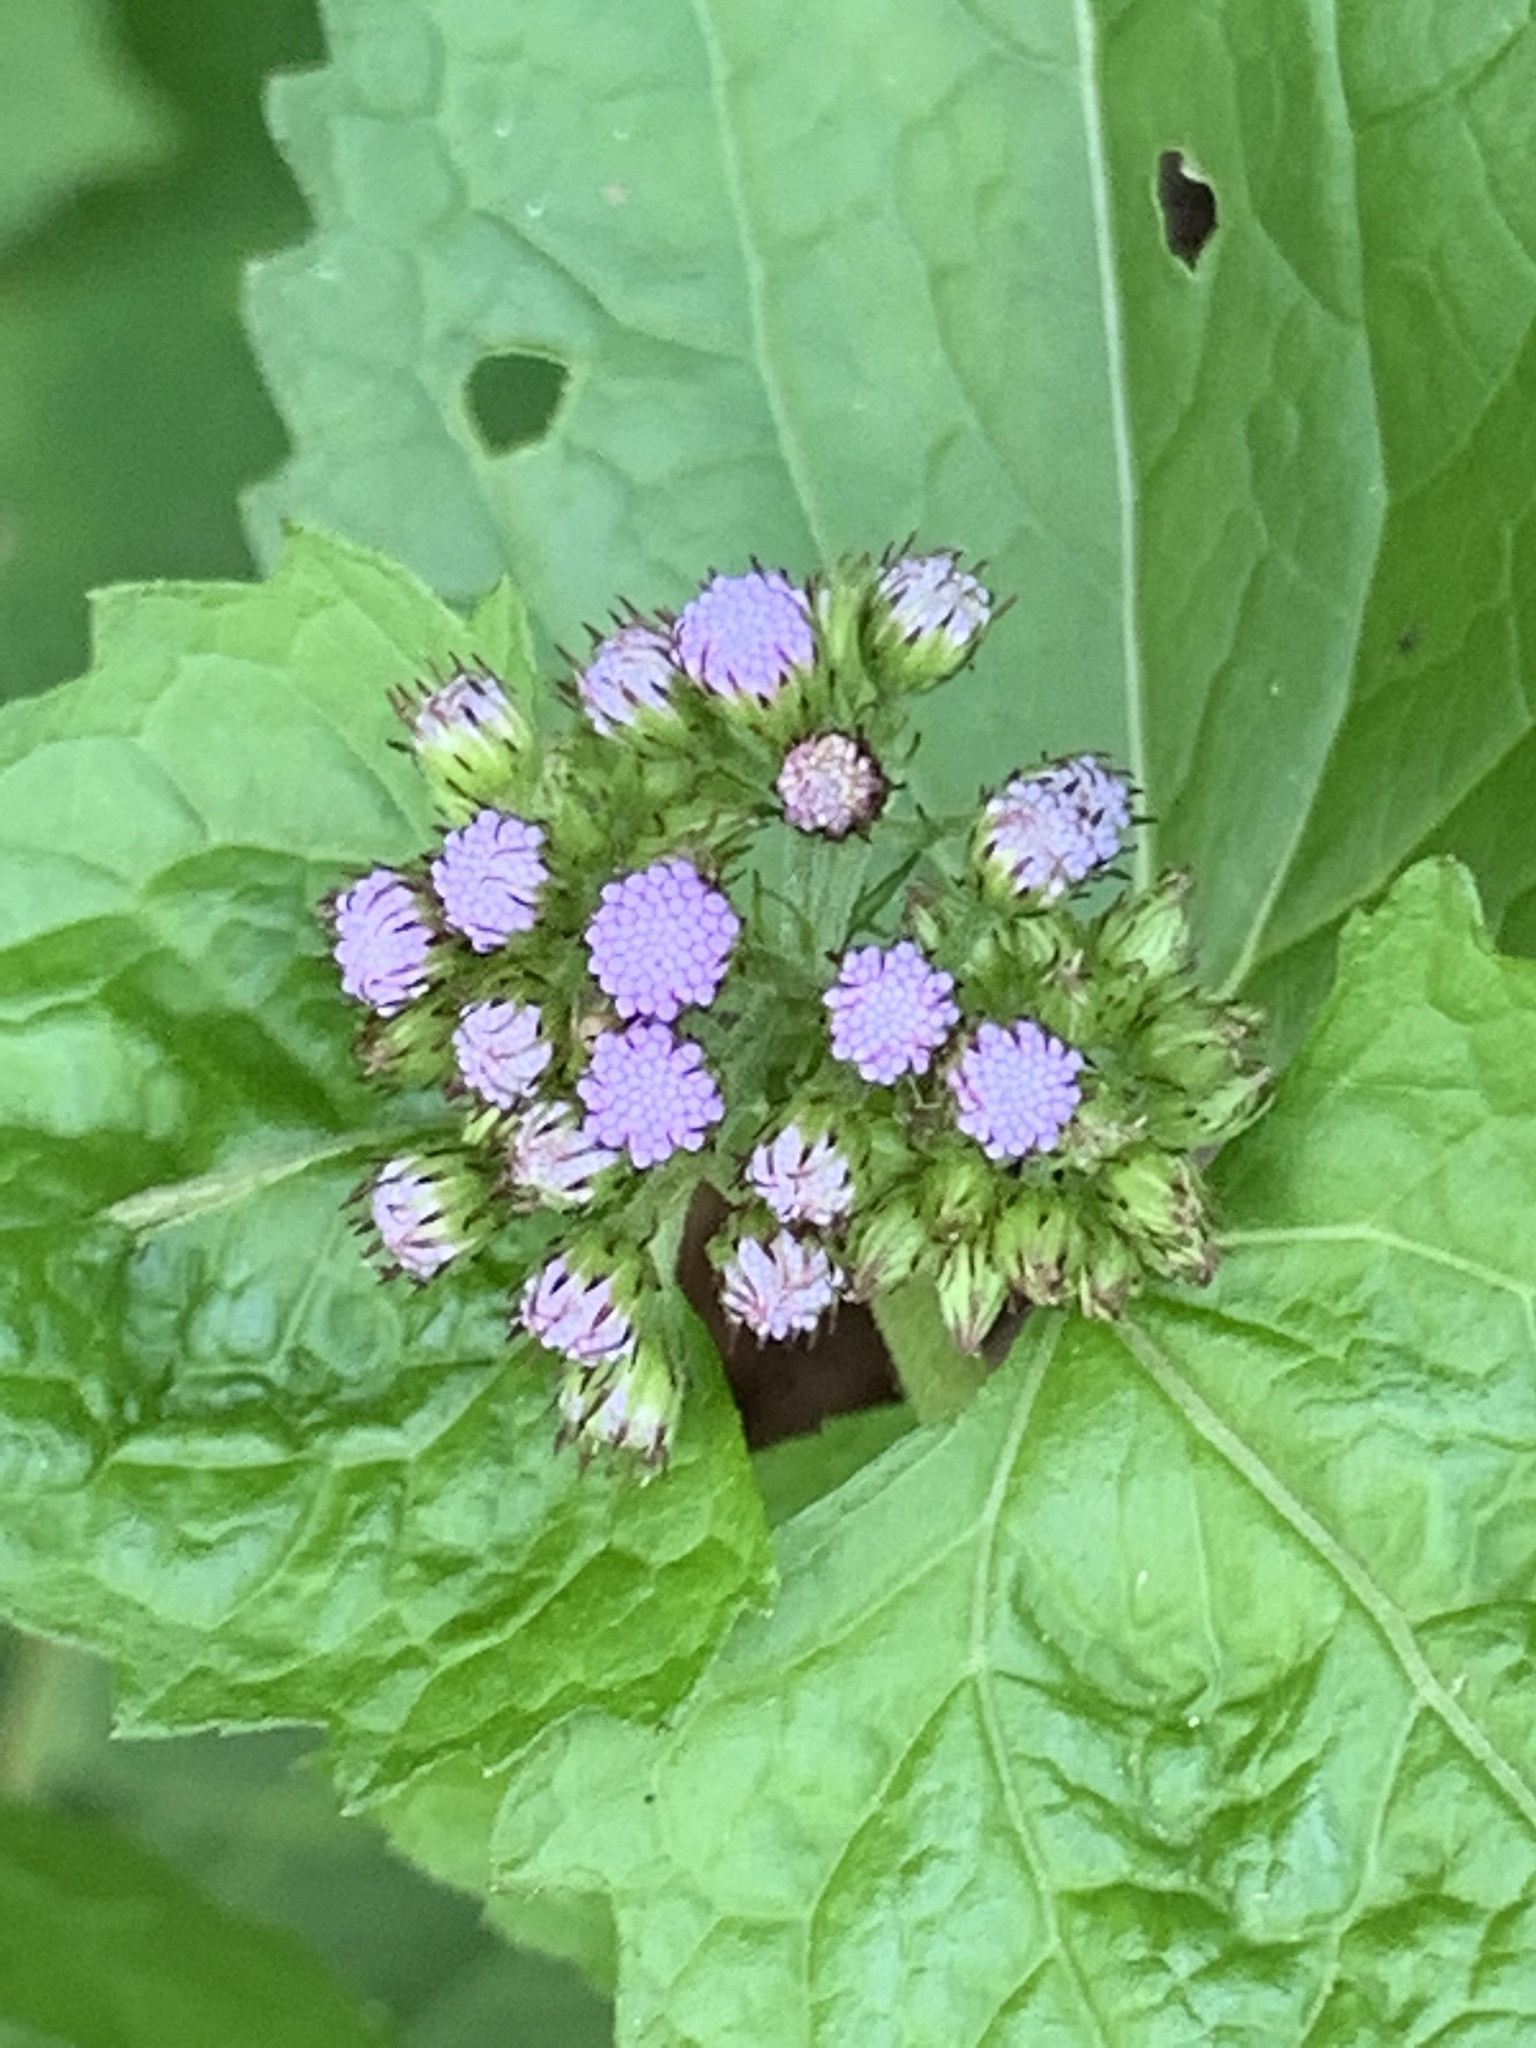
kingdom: Plantae
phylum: Tracheophyta
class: Magnoliopsida
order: Asterales
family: Asteraceae
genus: Conoclinium
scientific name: Conoclinium coelestinum
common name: Blue mistflower
